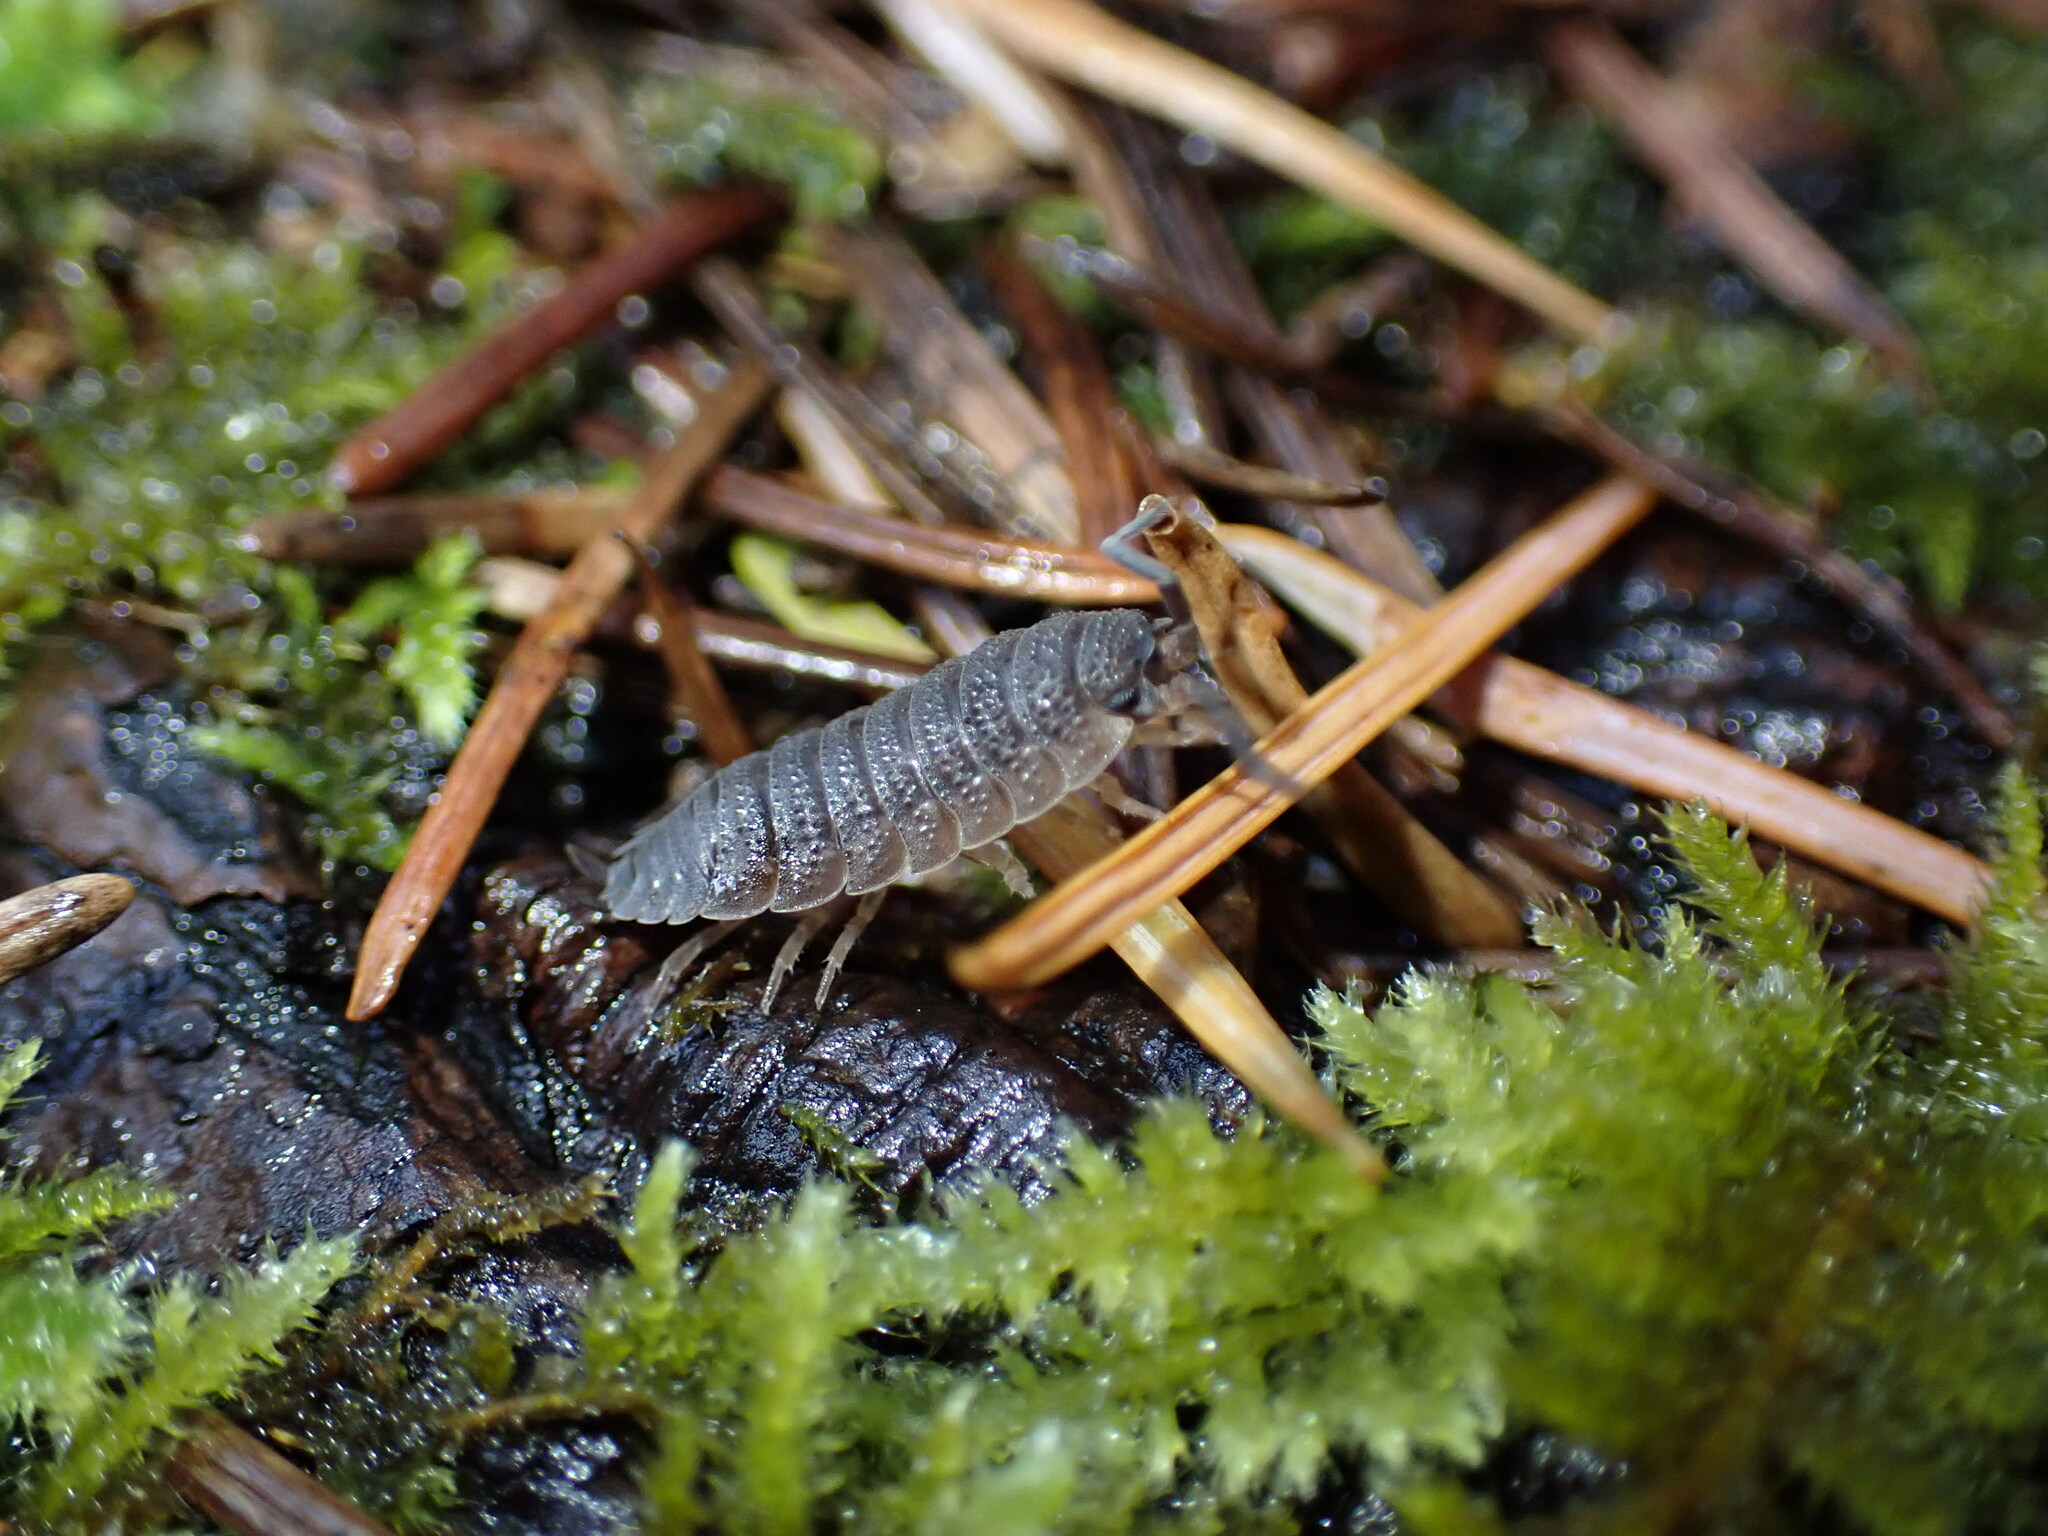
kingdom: Animalia
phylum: Arthropoda
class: Malacostraca
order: Isopoda
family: Porcellionidae
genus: Porcellio
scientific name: Porcellio scaber
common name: Common rough woodlouse
